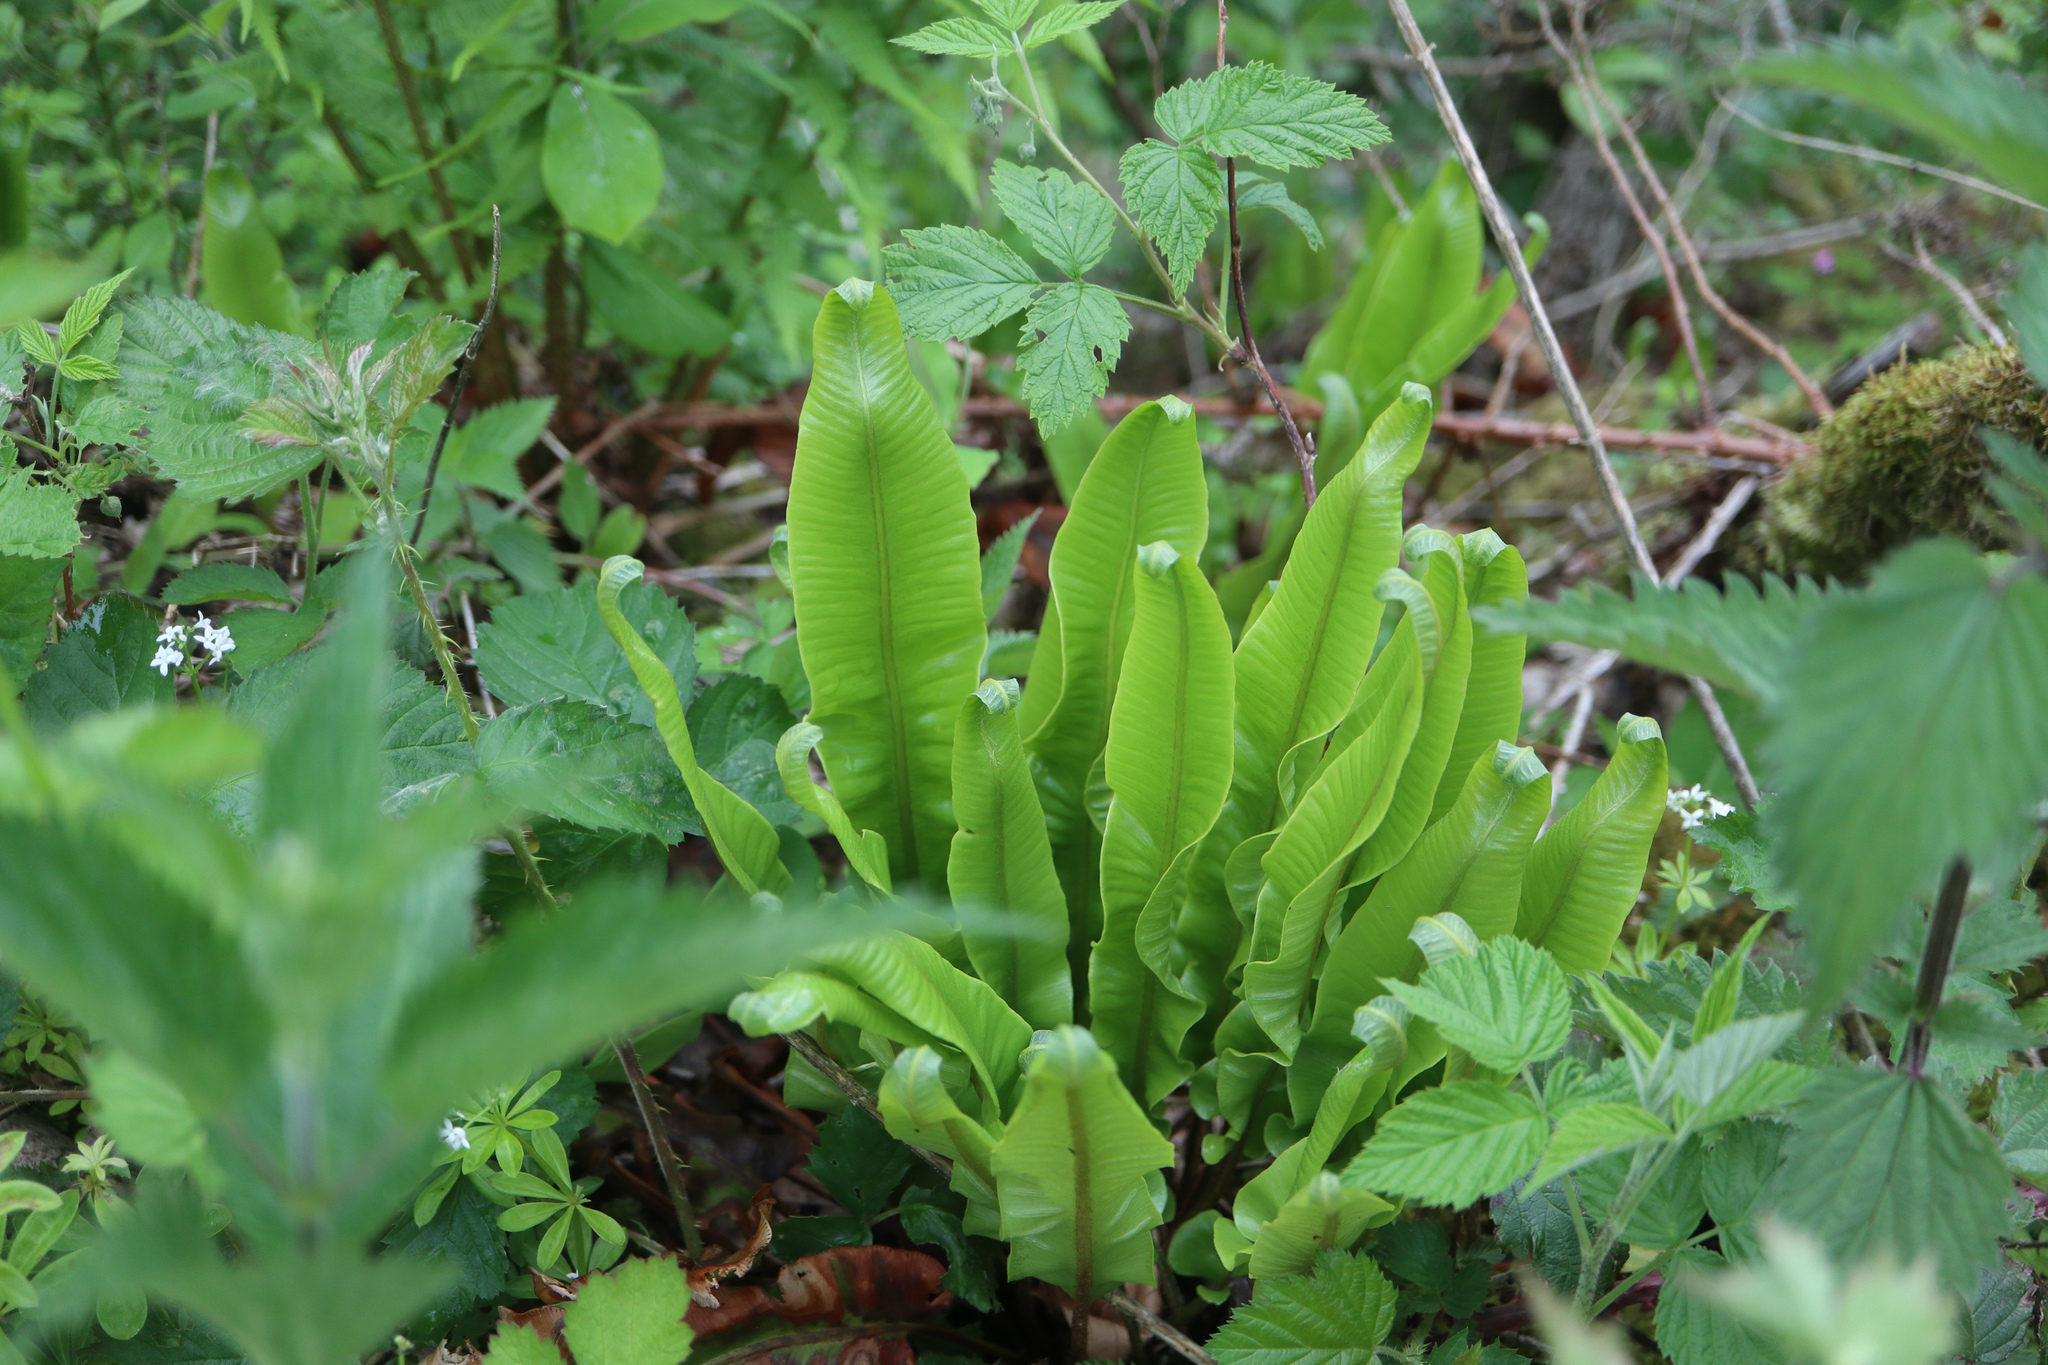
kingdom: Plantae
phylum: Tracheophyta
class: Polypodiopsida
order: Polypodiales
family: Aspleniaceae
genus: Asplenium
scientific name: Asplenium scolopendrium
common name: Hart's-tongue fern
